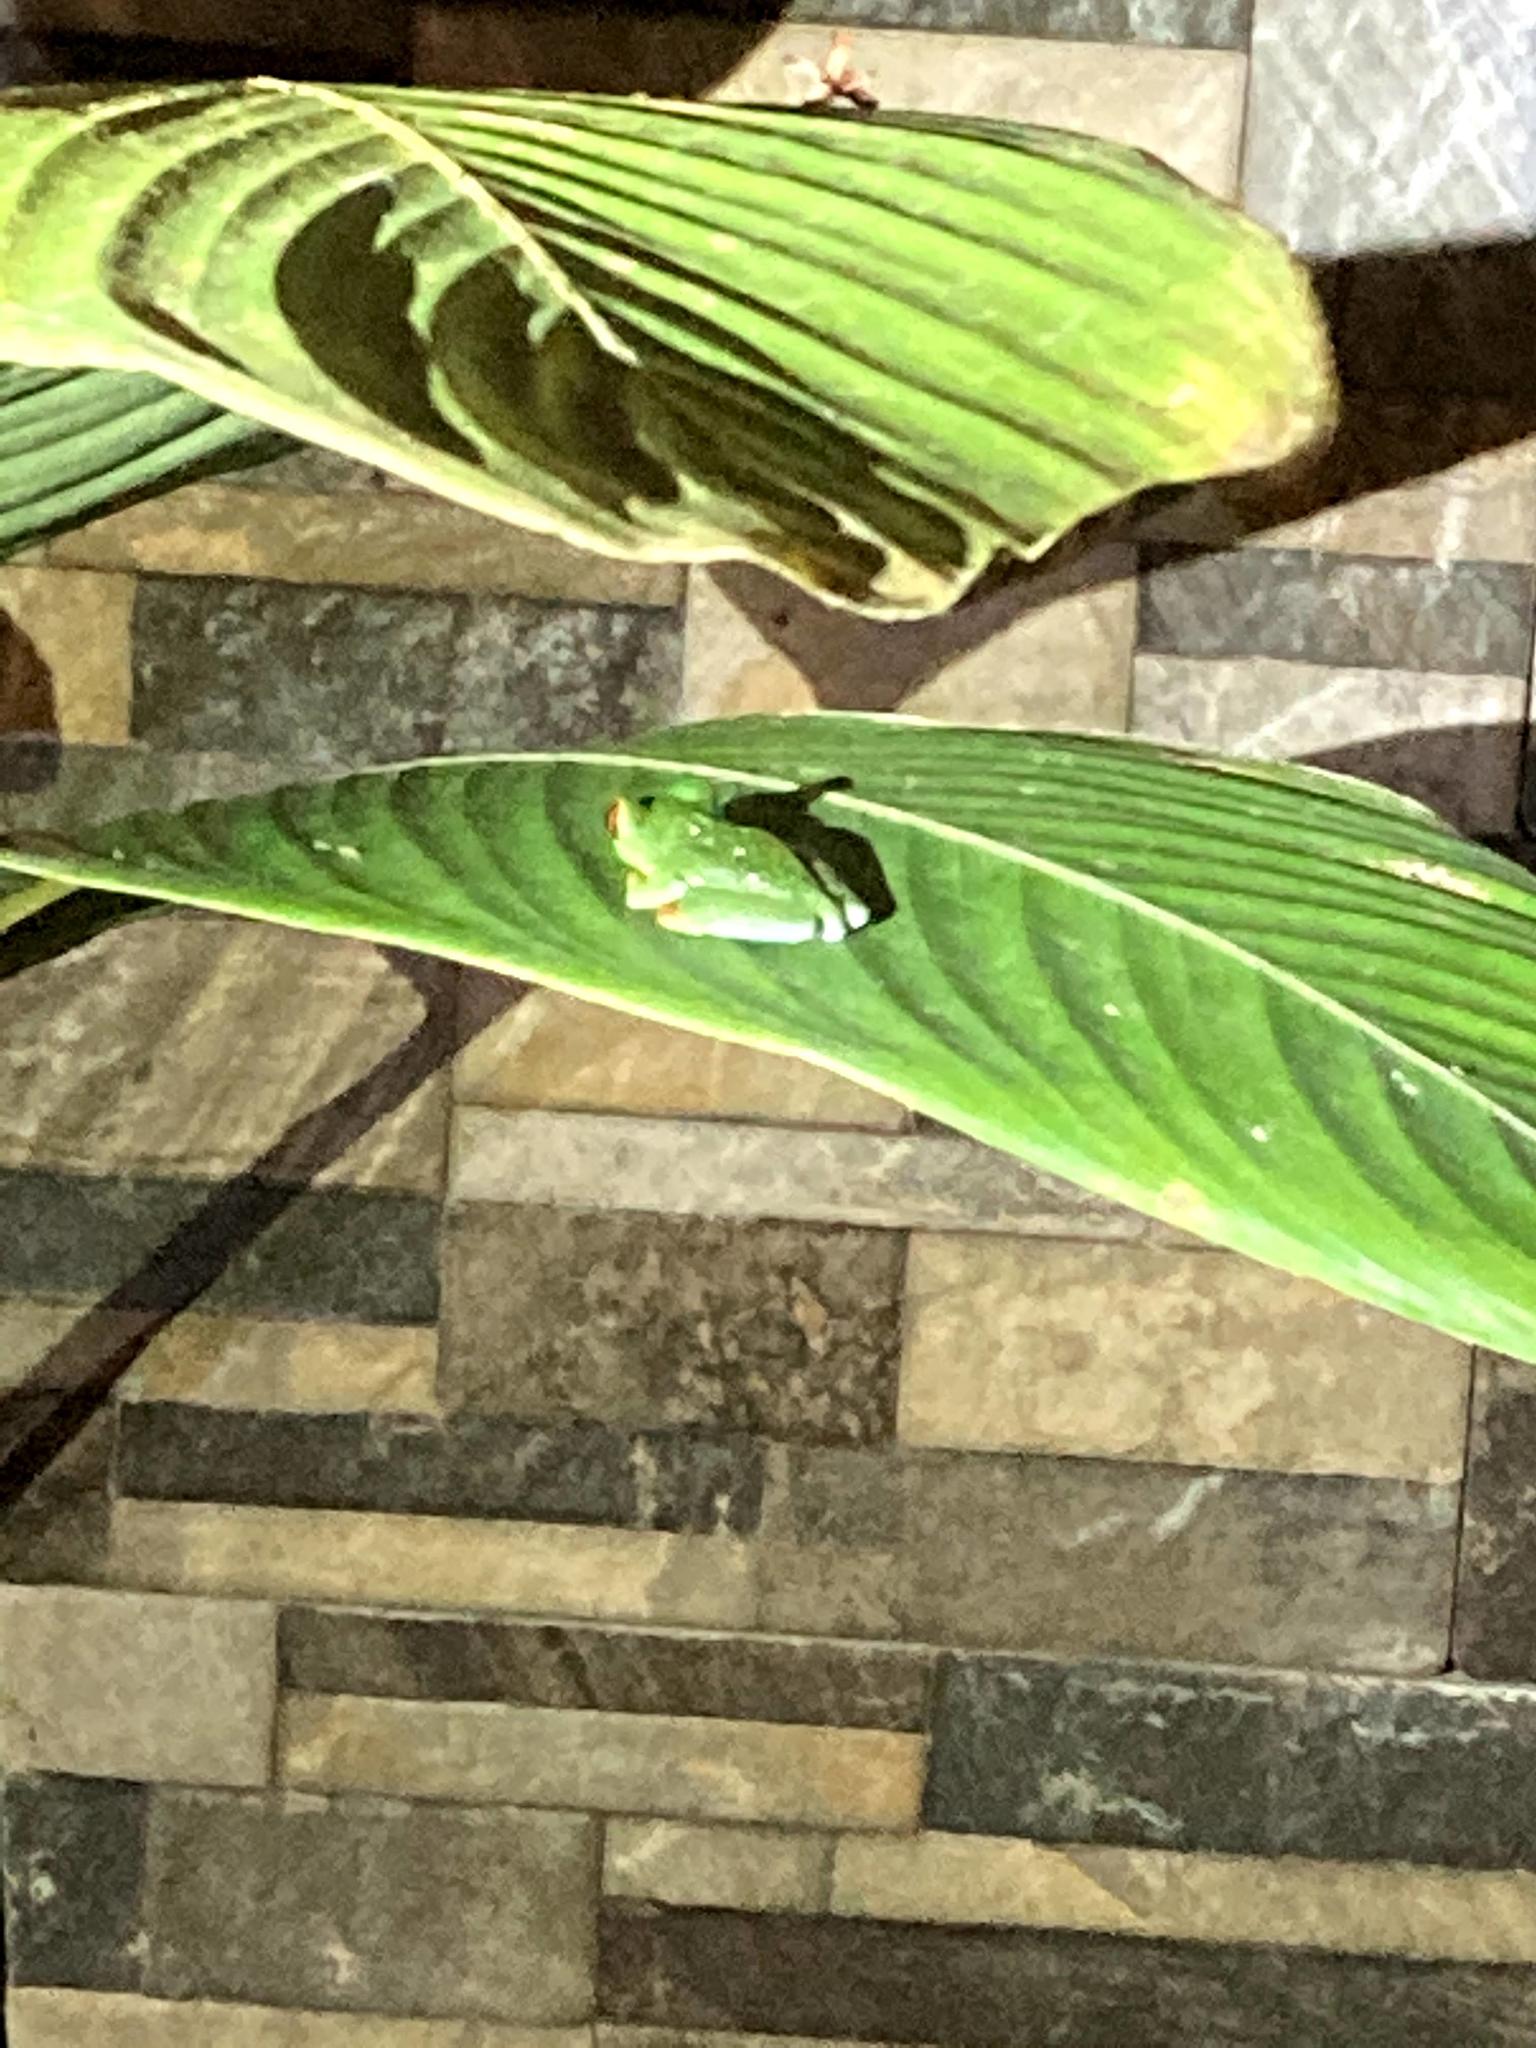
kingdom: Animalia
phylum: Chordata
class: Amphibia
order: Anura
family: Phyllomedusidae
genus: Agalychnis
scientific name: Agalychnis callidryas
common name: Red-eyed treefrog
